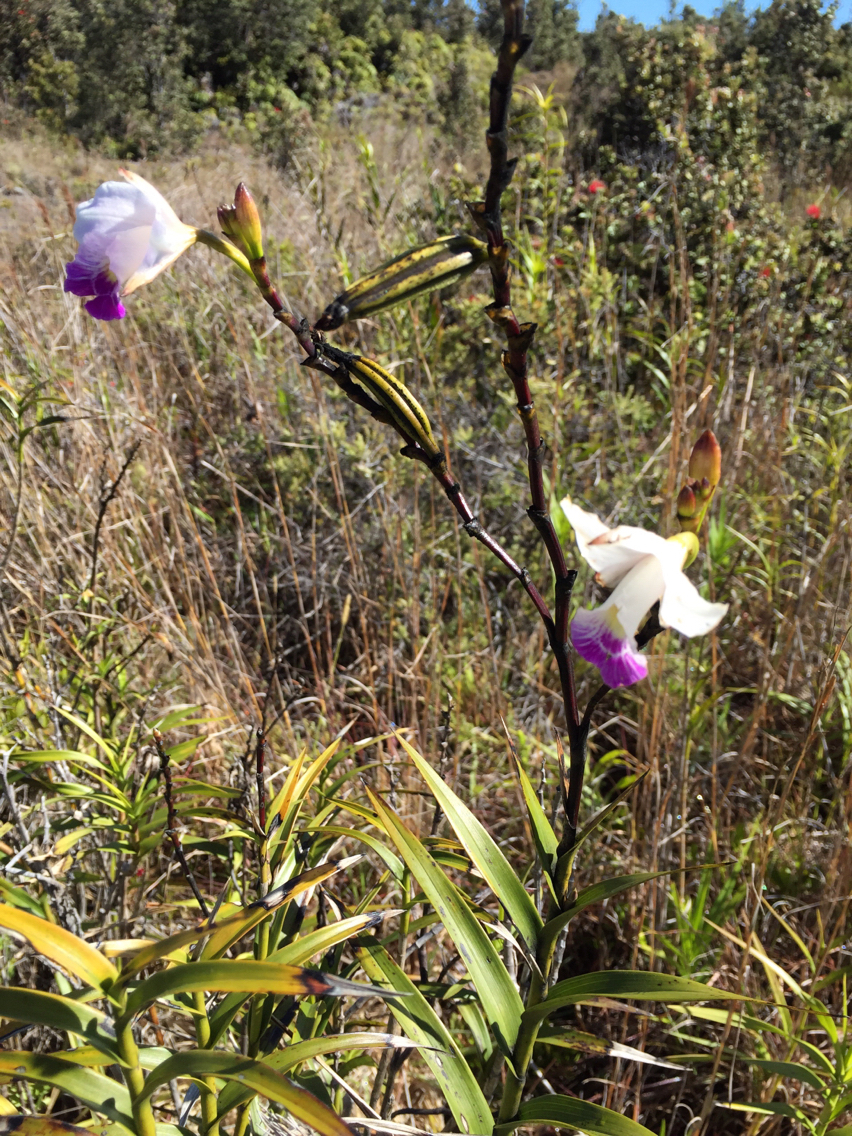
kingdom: Plantae
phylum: Tracheophyta
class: Liliopsida
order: Asparagales
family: Orchidaceae
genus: Arundina
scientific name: Arundina graminifolia
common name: Bamboo orchid
